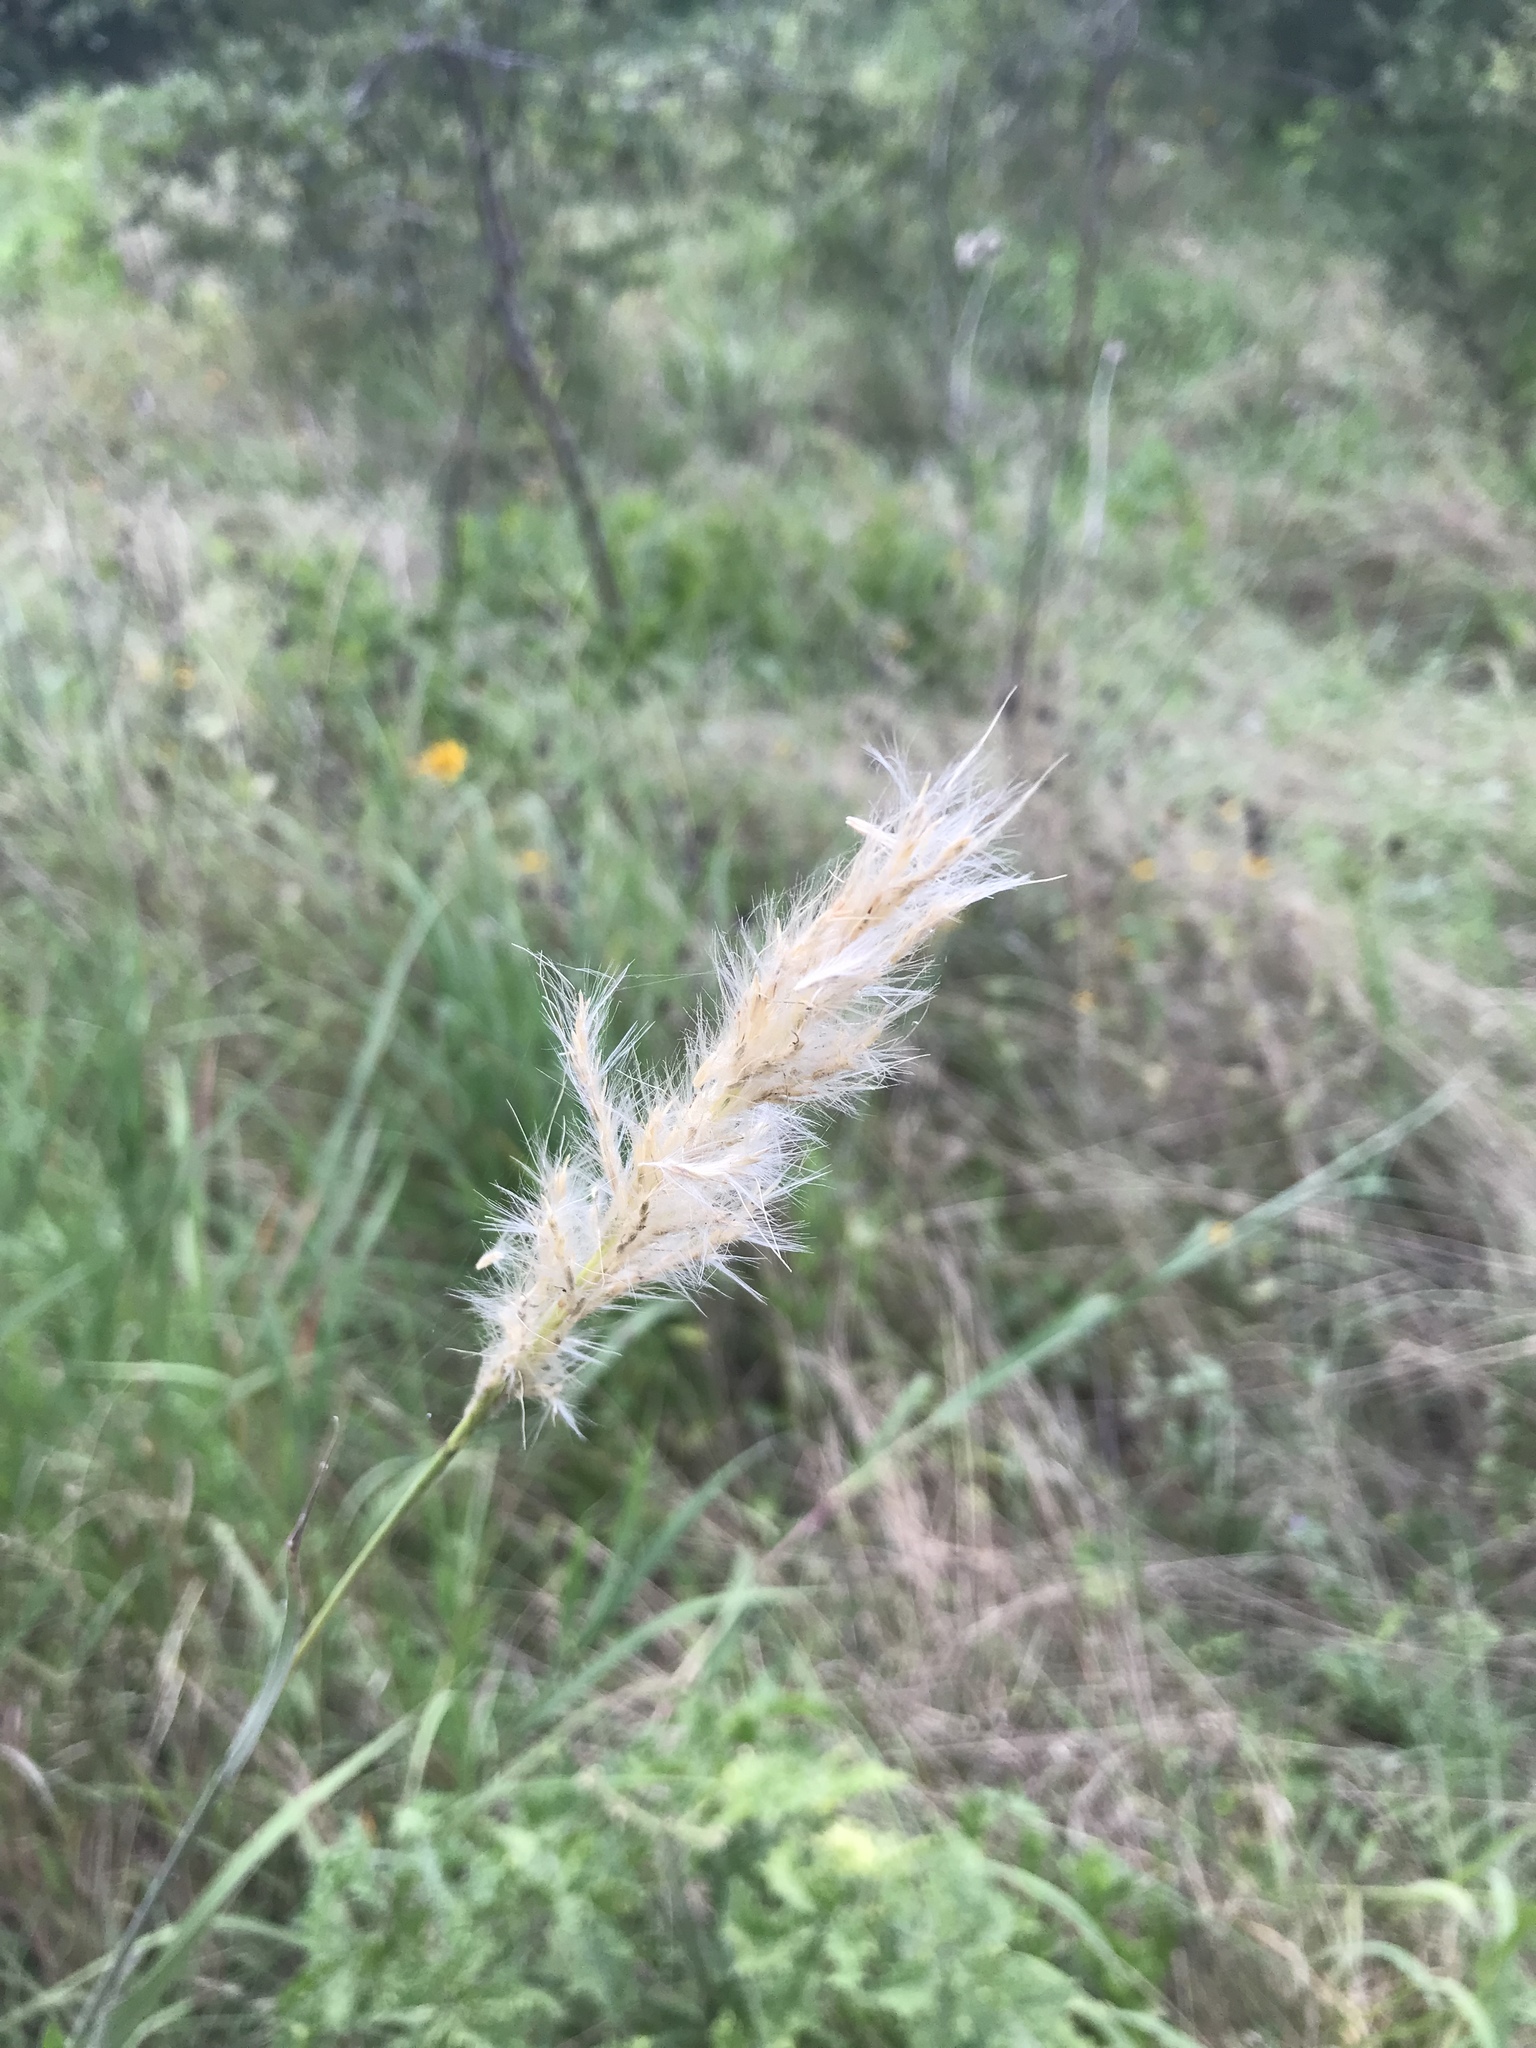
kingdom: Plantae
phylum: Tracheophyta
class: Liliopsida
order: Poales
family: Poaceae
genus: Bothriochloa
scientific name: Bothriochloa torreyana
